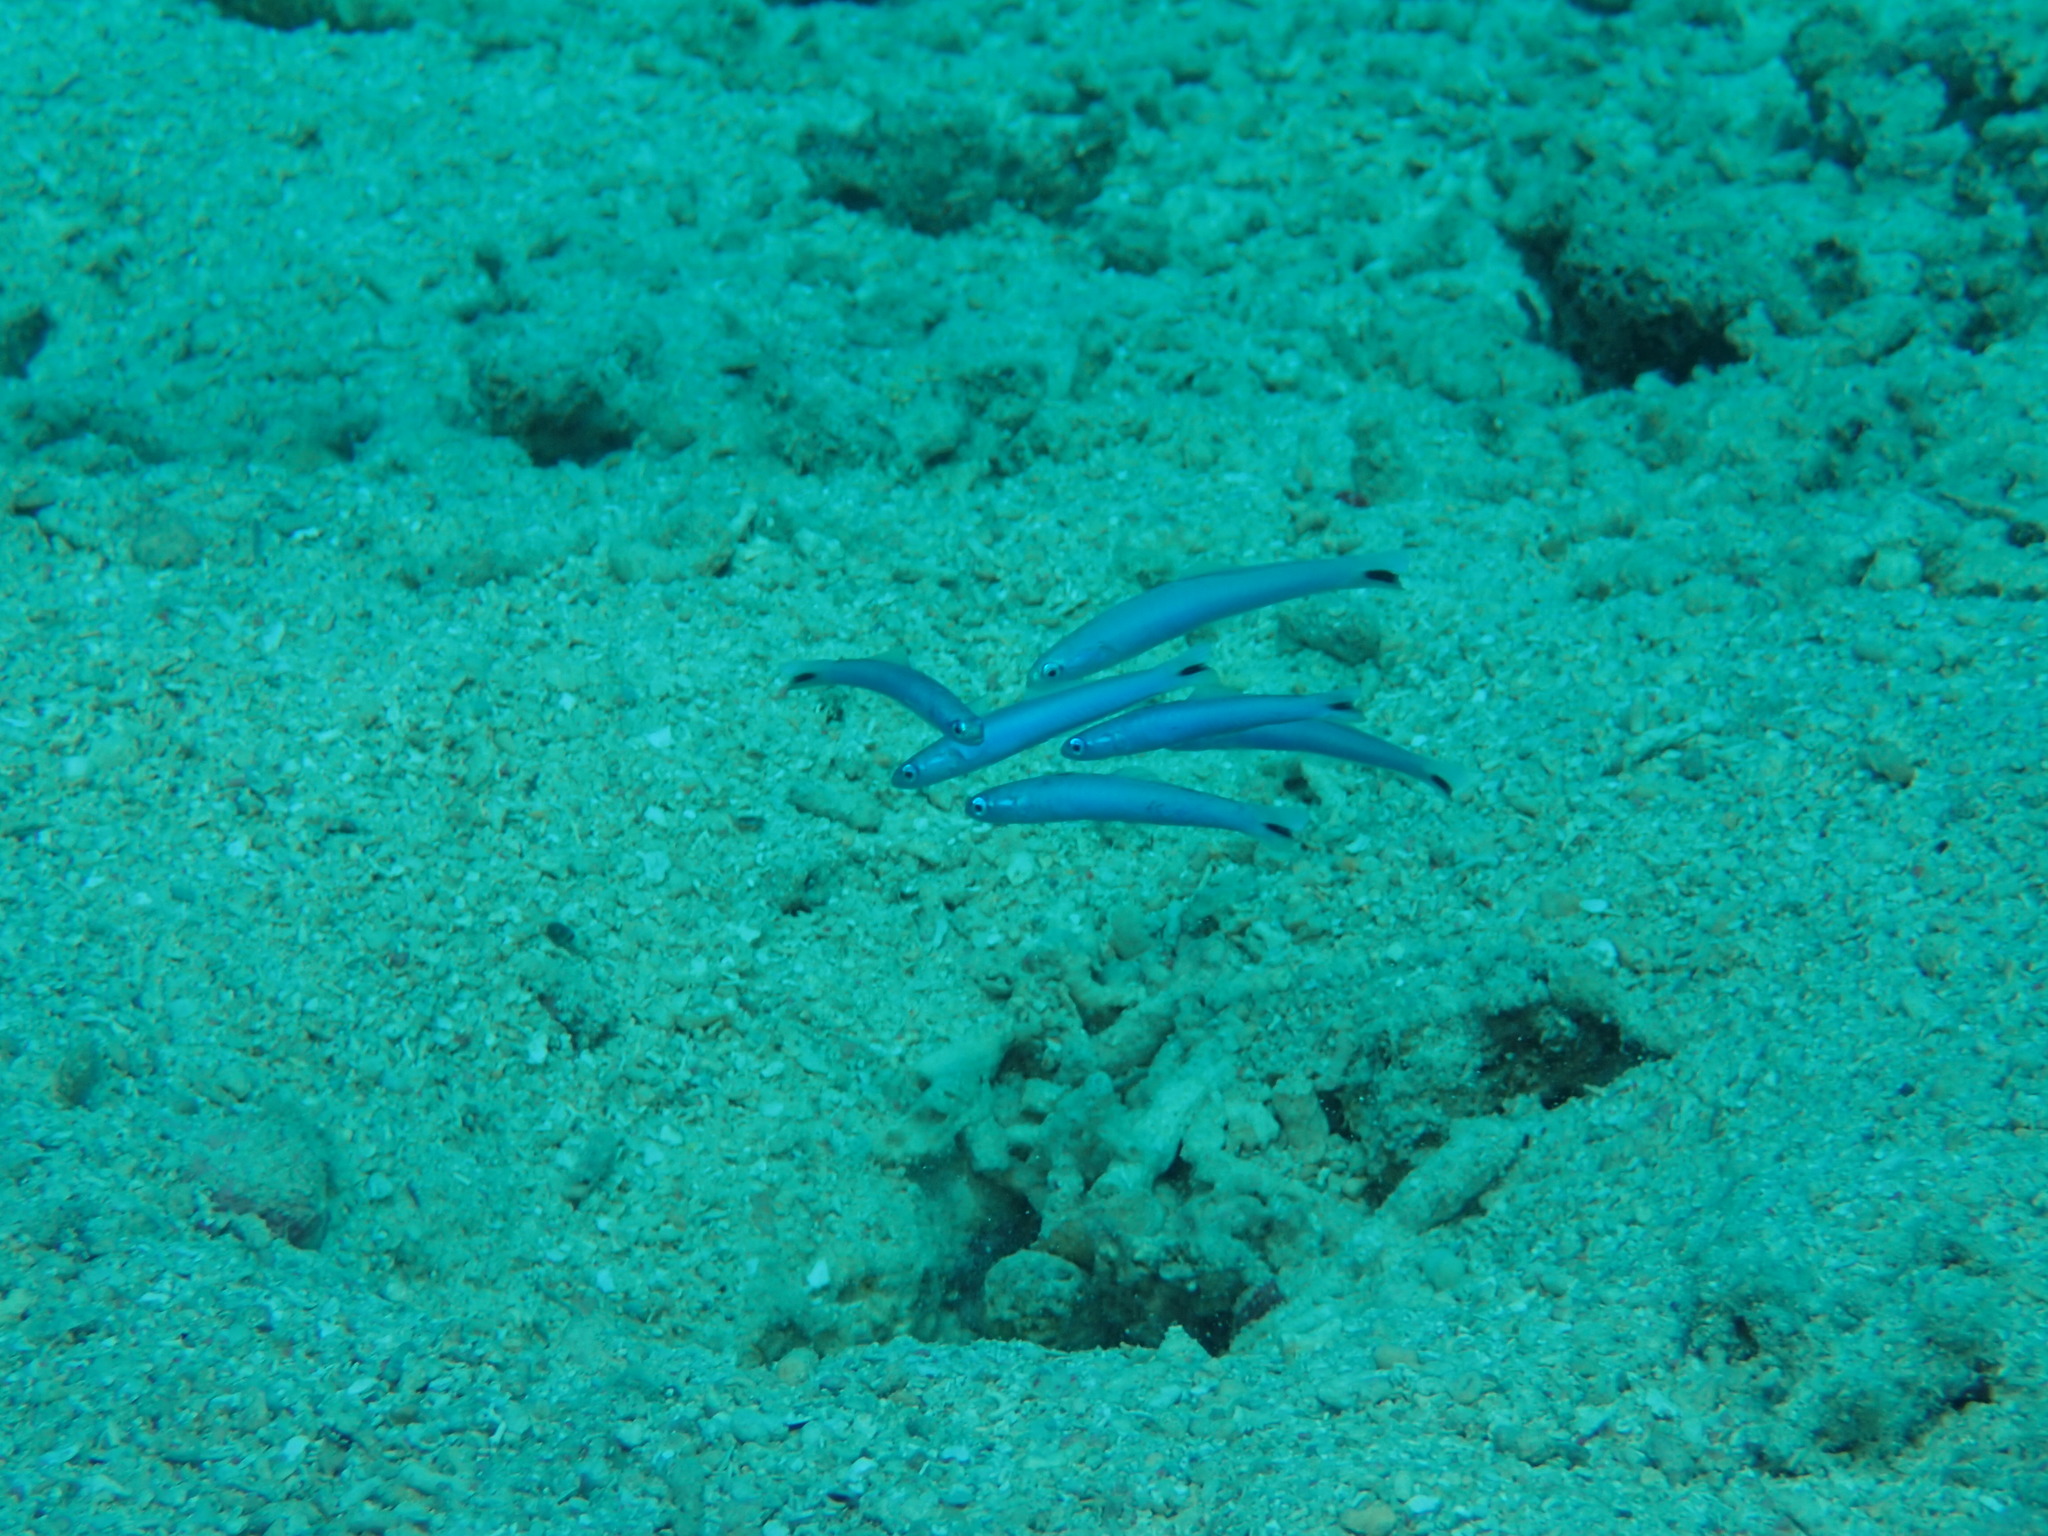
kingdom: Animalia
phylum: Chordata
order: Perciformes
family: Microdesmidae
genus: Ptereleotris
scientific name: Ptereleotris heteroptera
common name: Blacktail goby
